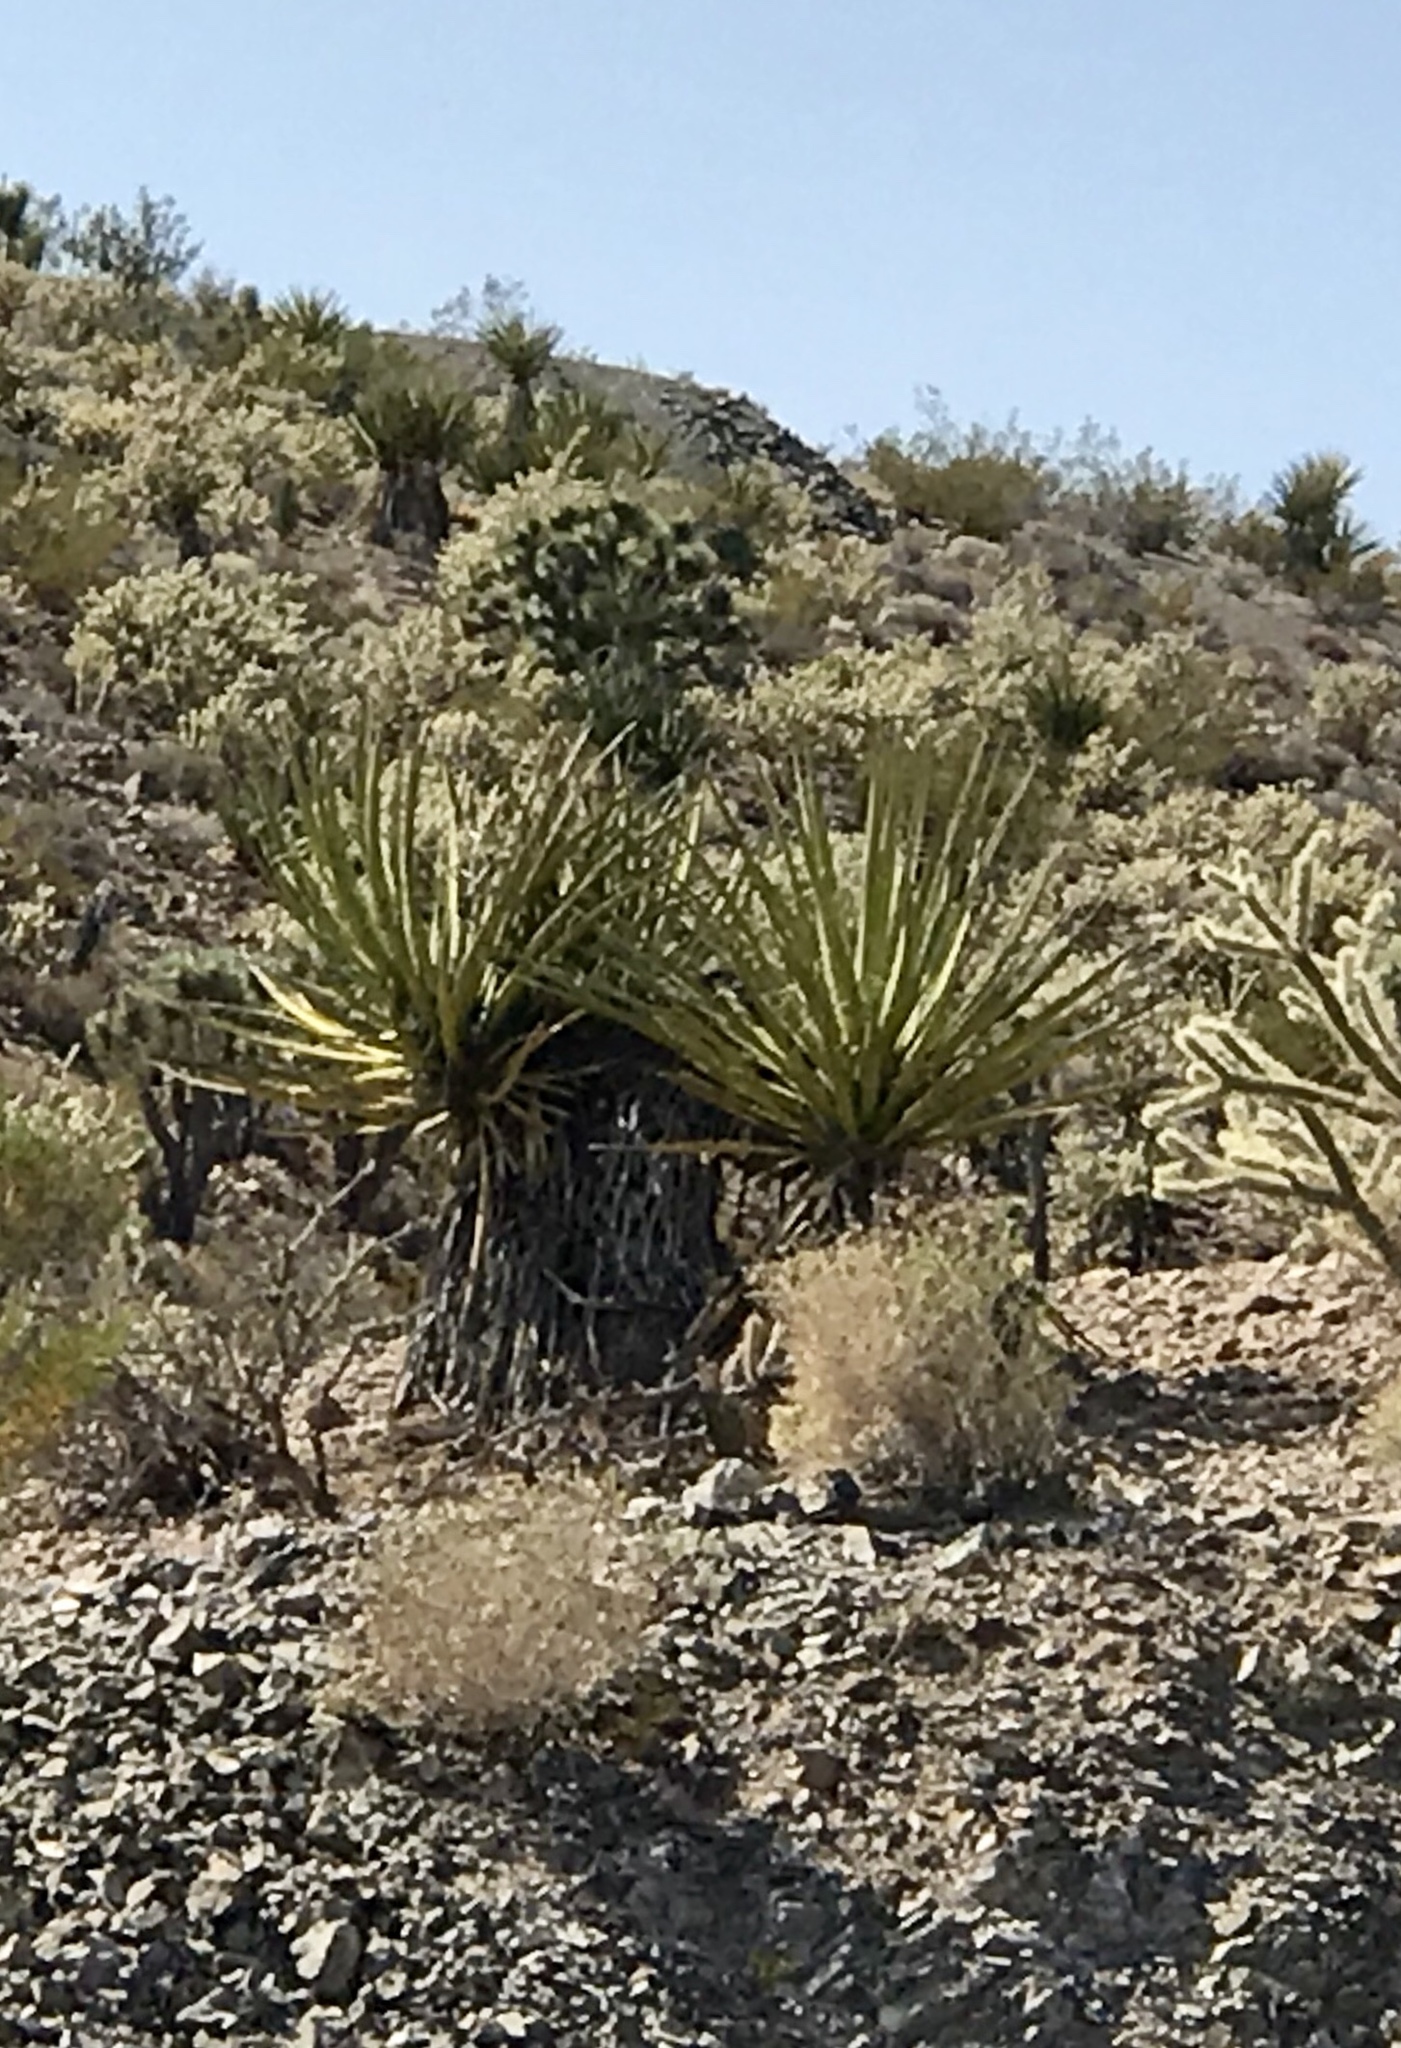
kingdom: Plantae
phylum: Tracheophyta
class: Liliopsida
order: Asparagales
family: Asparagaceae
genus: Yucca
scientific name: Yucca schidigera
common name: Mojave yucca
